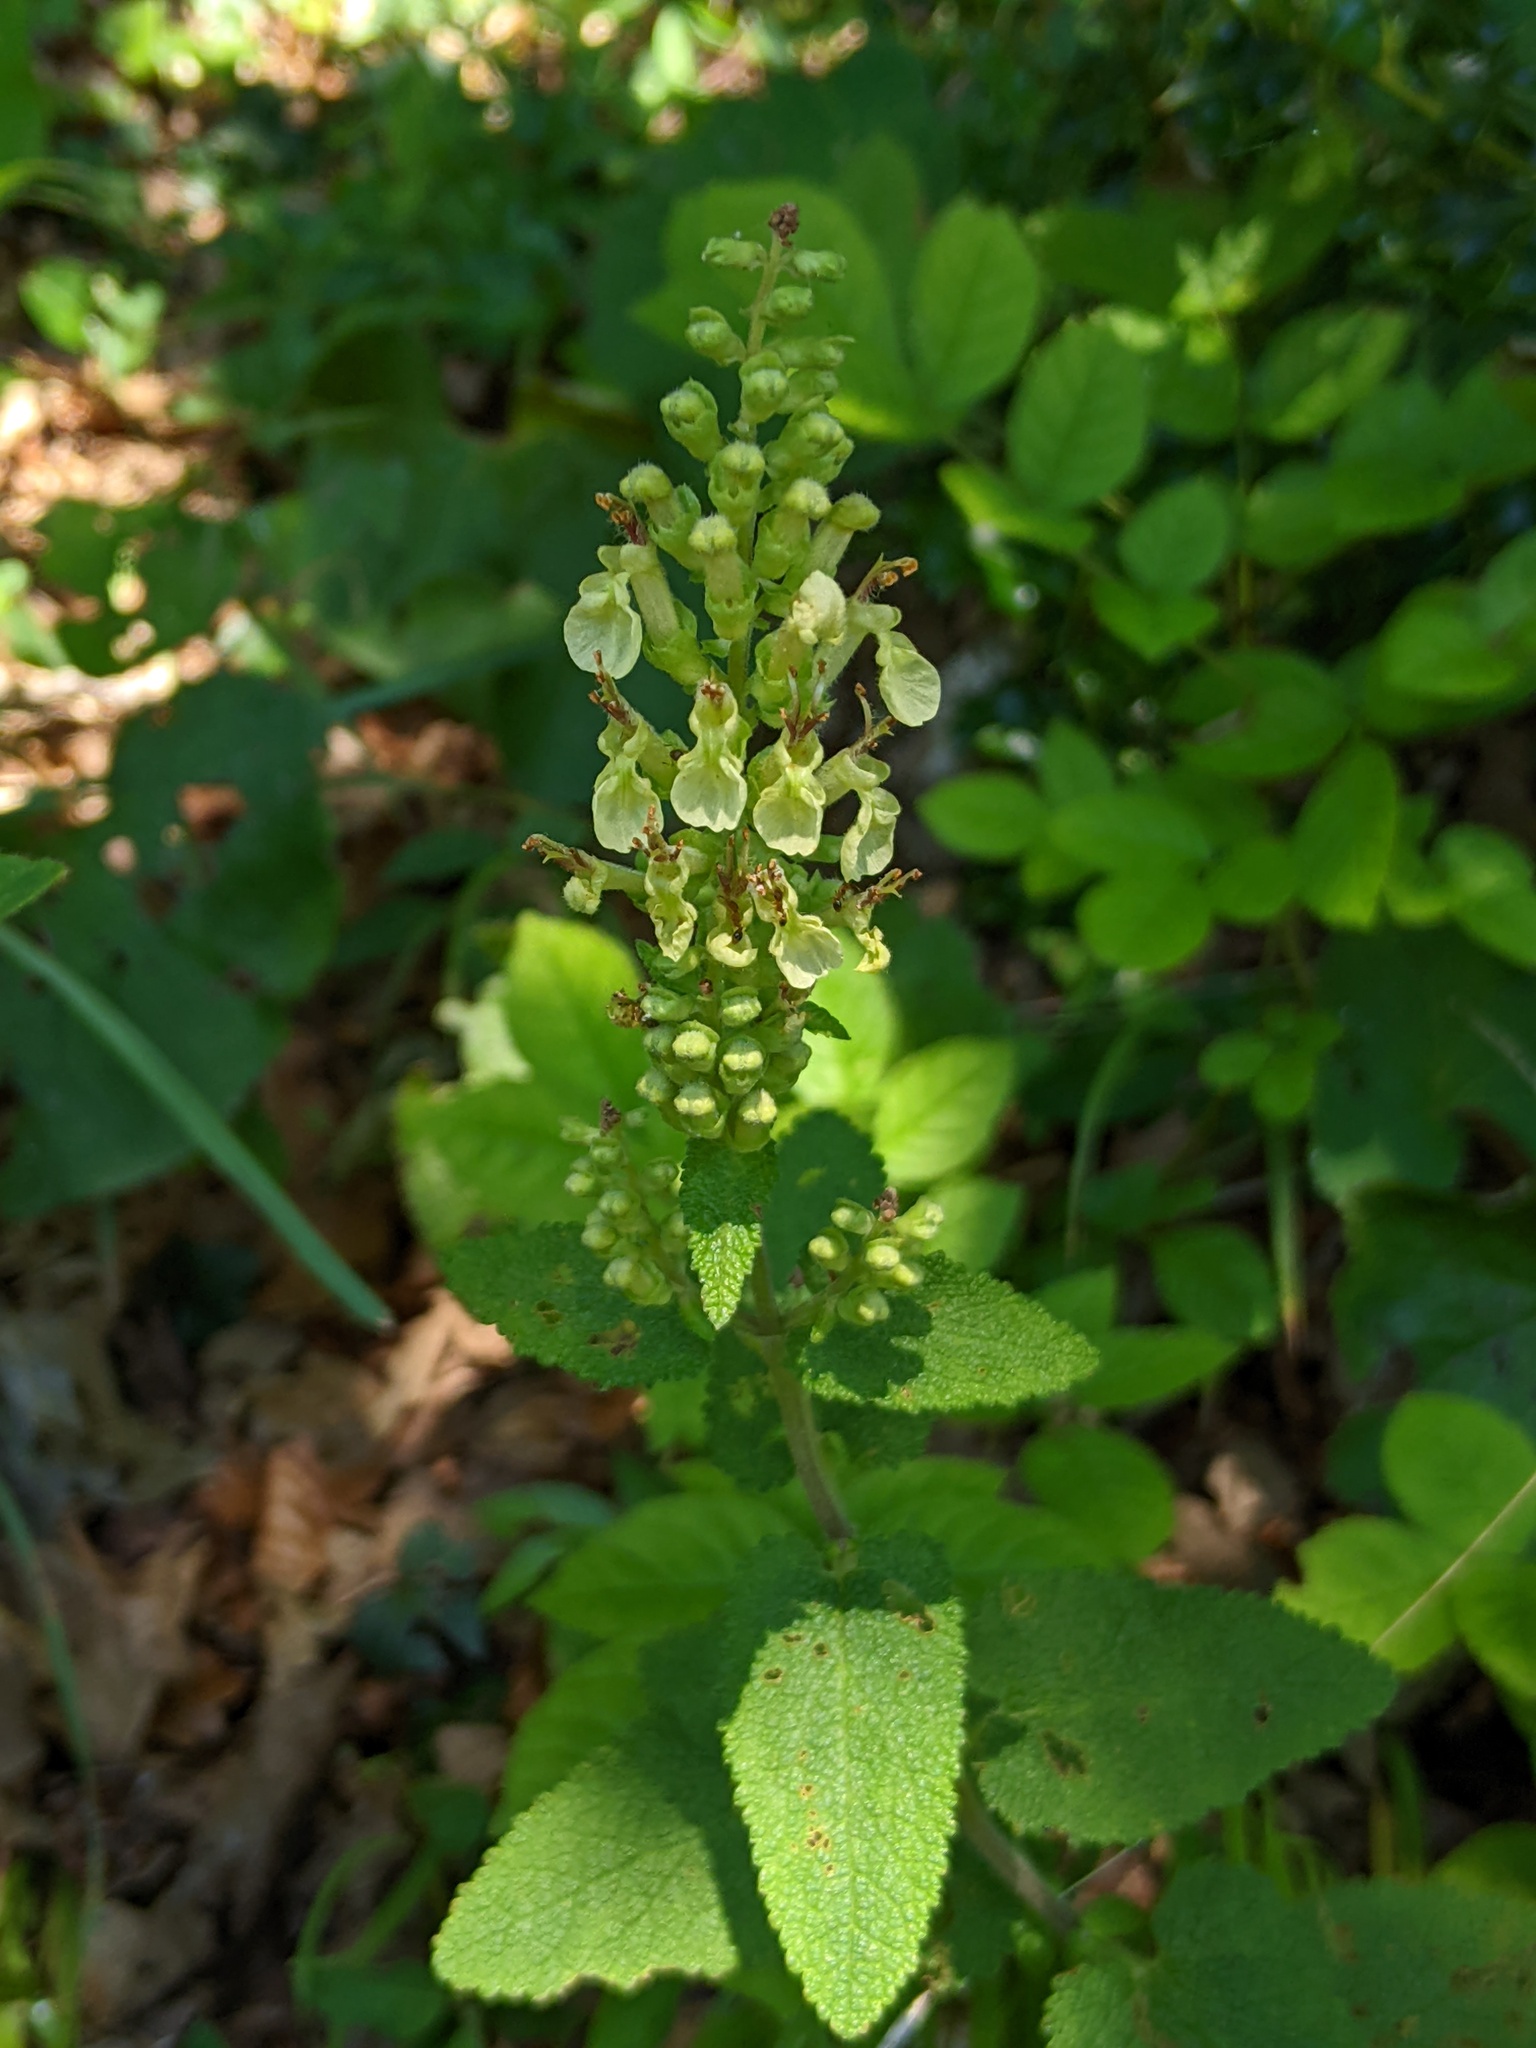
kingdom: Plantae
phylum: Tracheophyta
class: Magnoliopsida
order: Lamiales
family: Lamiaceae
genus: Teucrium
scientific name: Teucrium scorodonia
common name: Woodland germander
